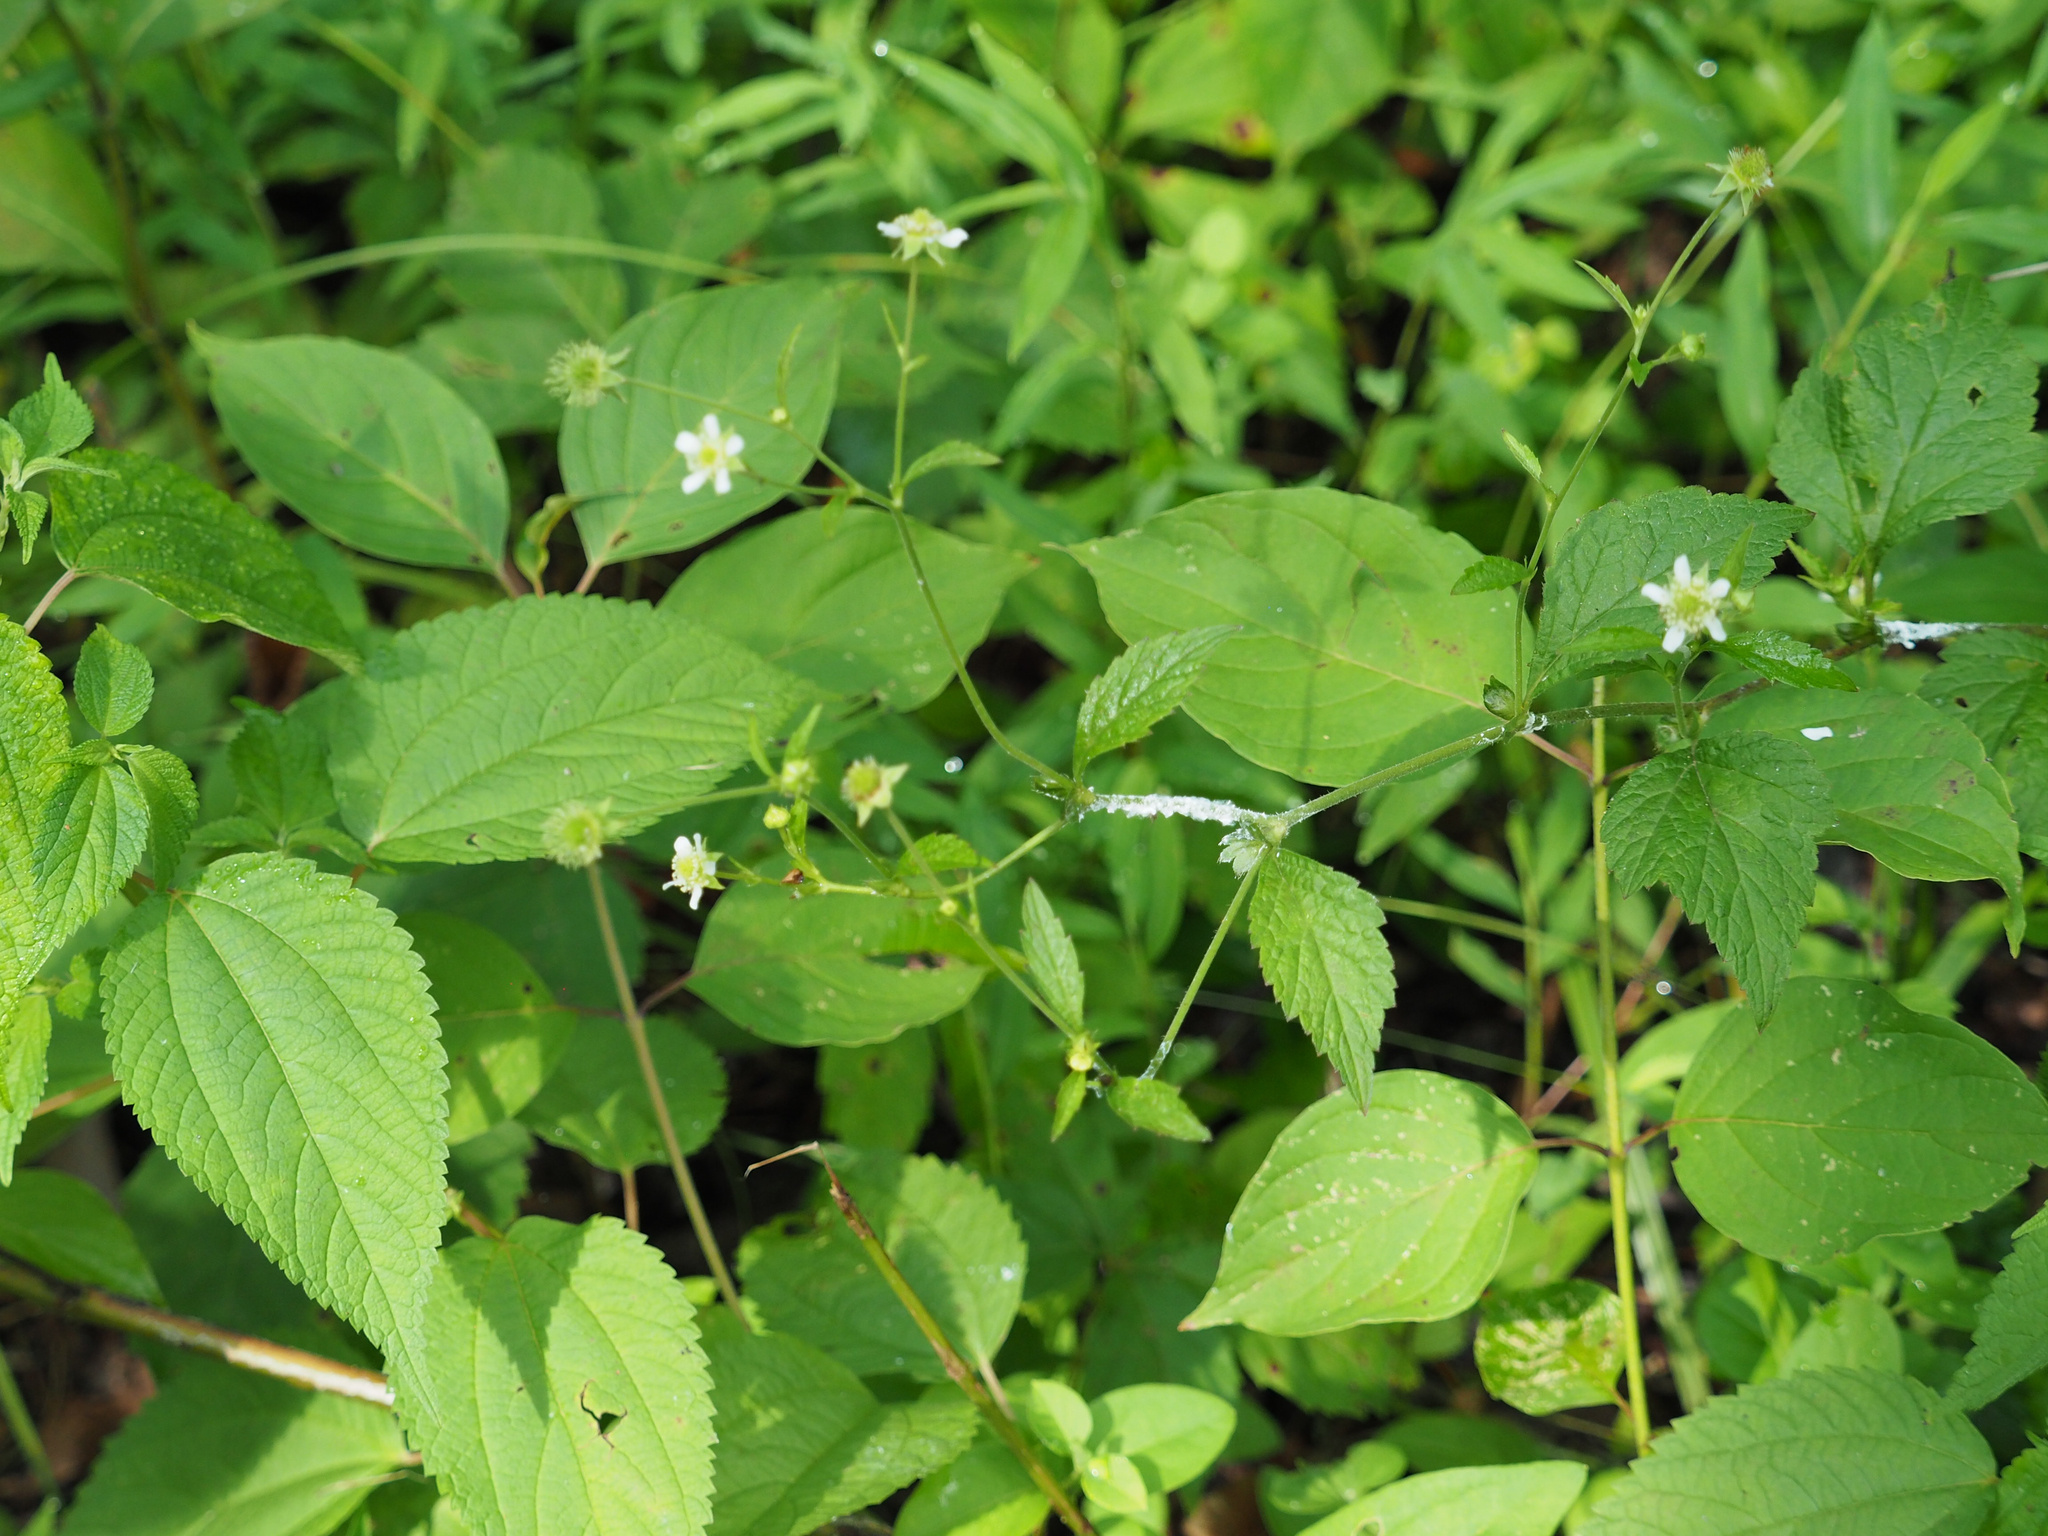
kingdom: Plantae
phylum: Tracheophyta
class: Magnoliopsida
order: Rosales
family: Rosaceae
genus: Geum
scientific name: Geum canadense
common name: White avens
